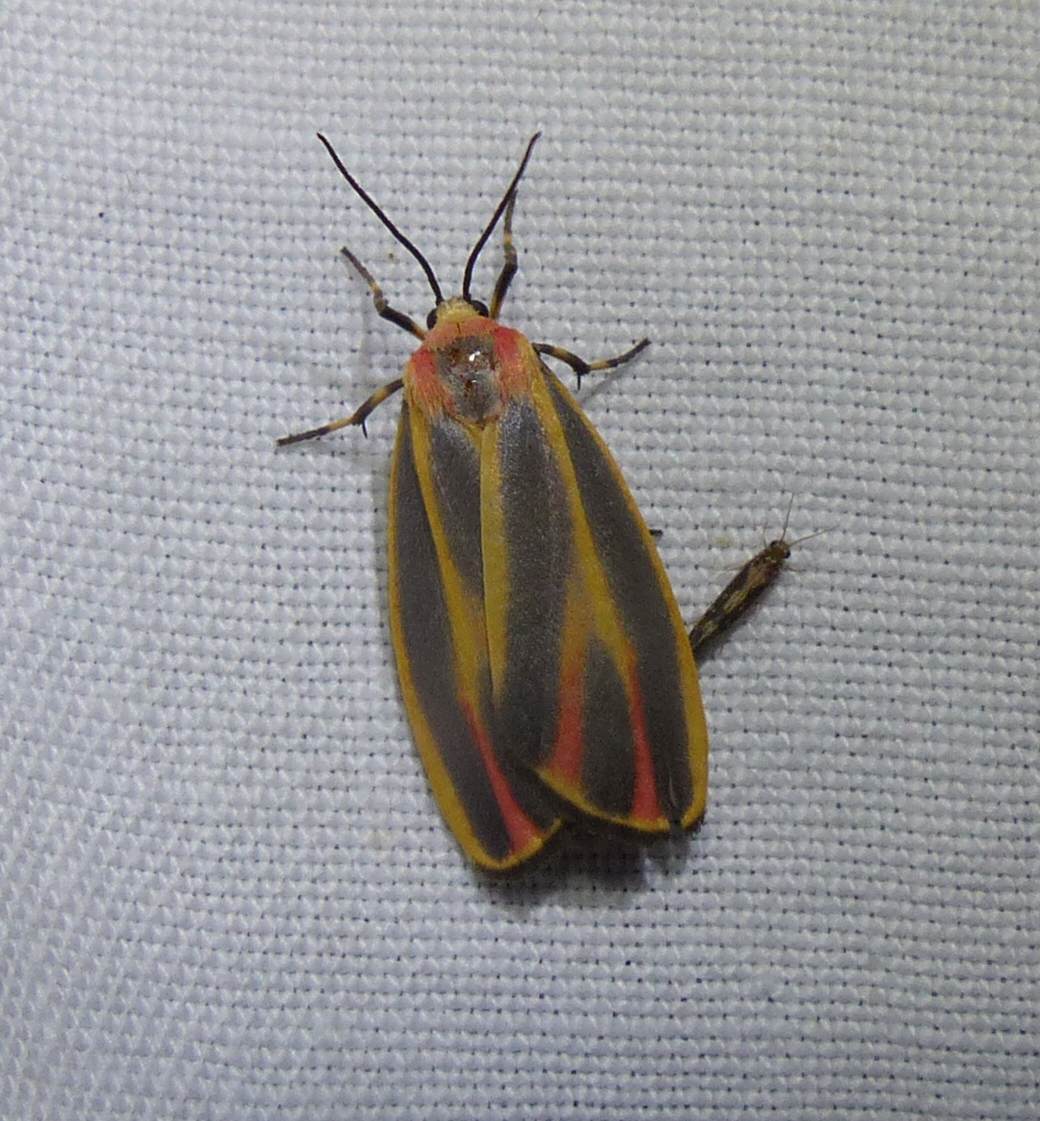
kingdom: Animalia
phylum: Arthropoda
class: Insecta
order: Lepidoptera
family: Erebidae
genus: Hypoprepia
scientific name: Hypoprepia fucosa
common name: Painted lichen moth
